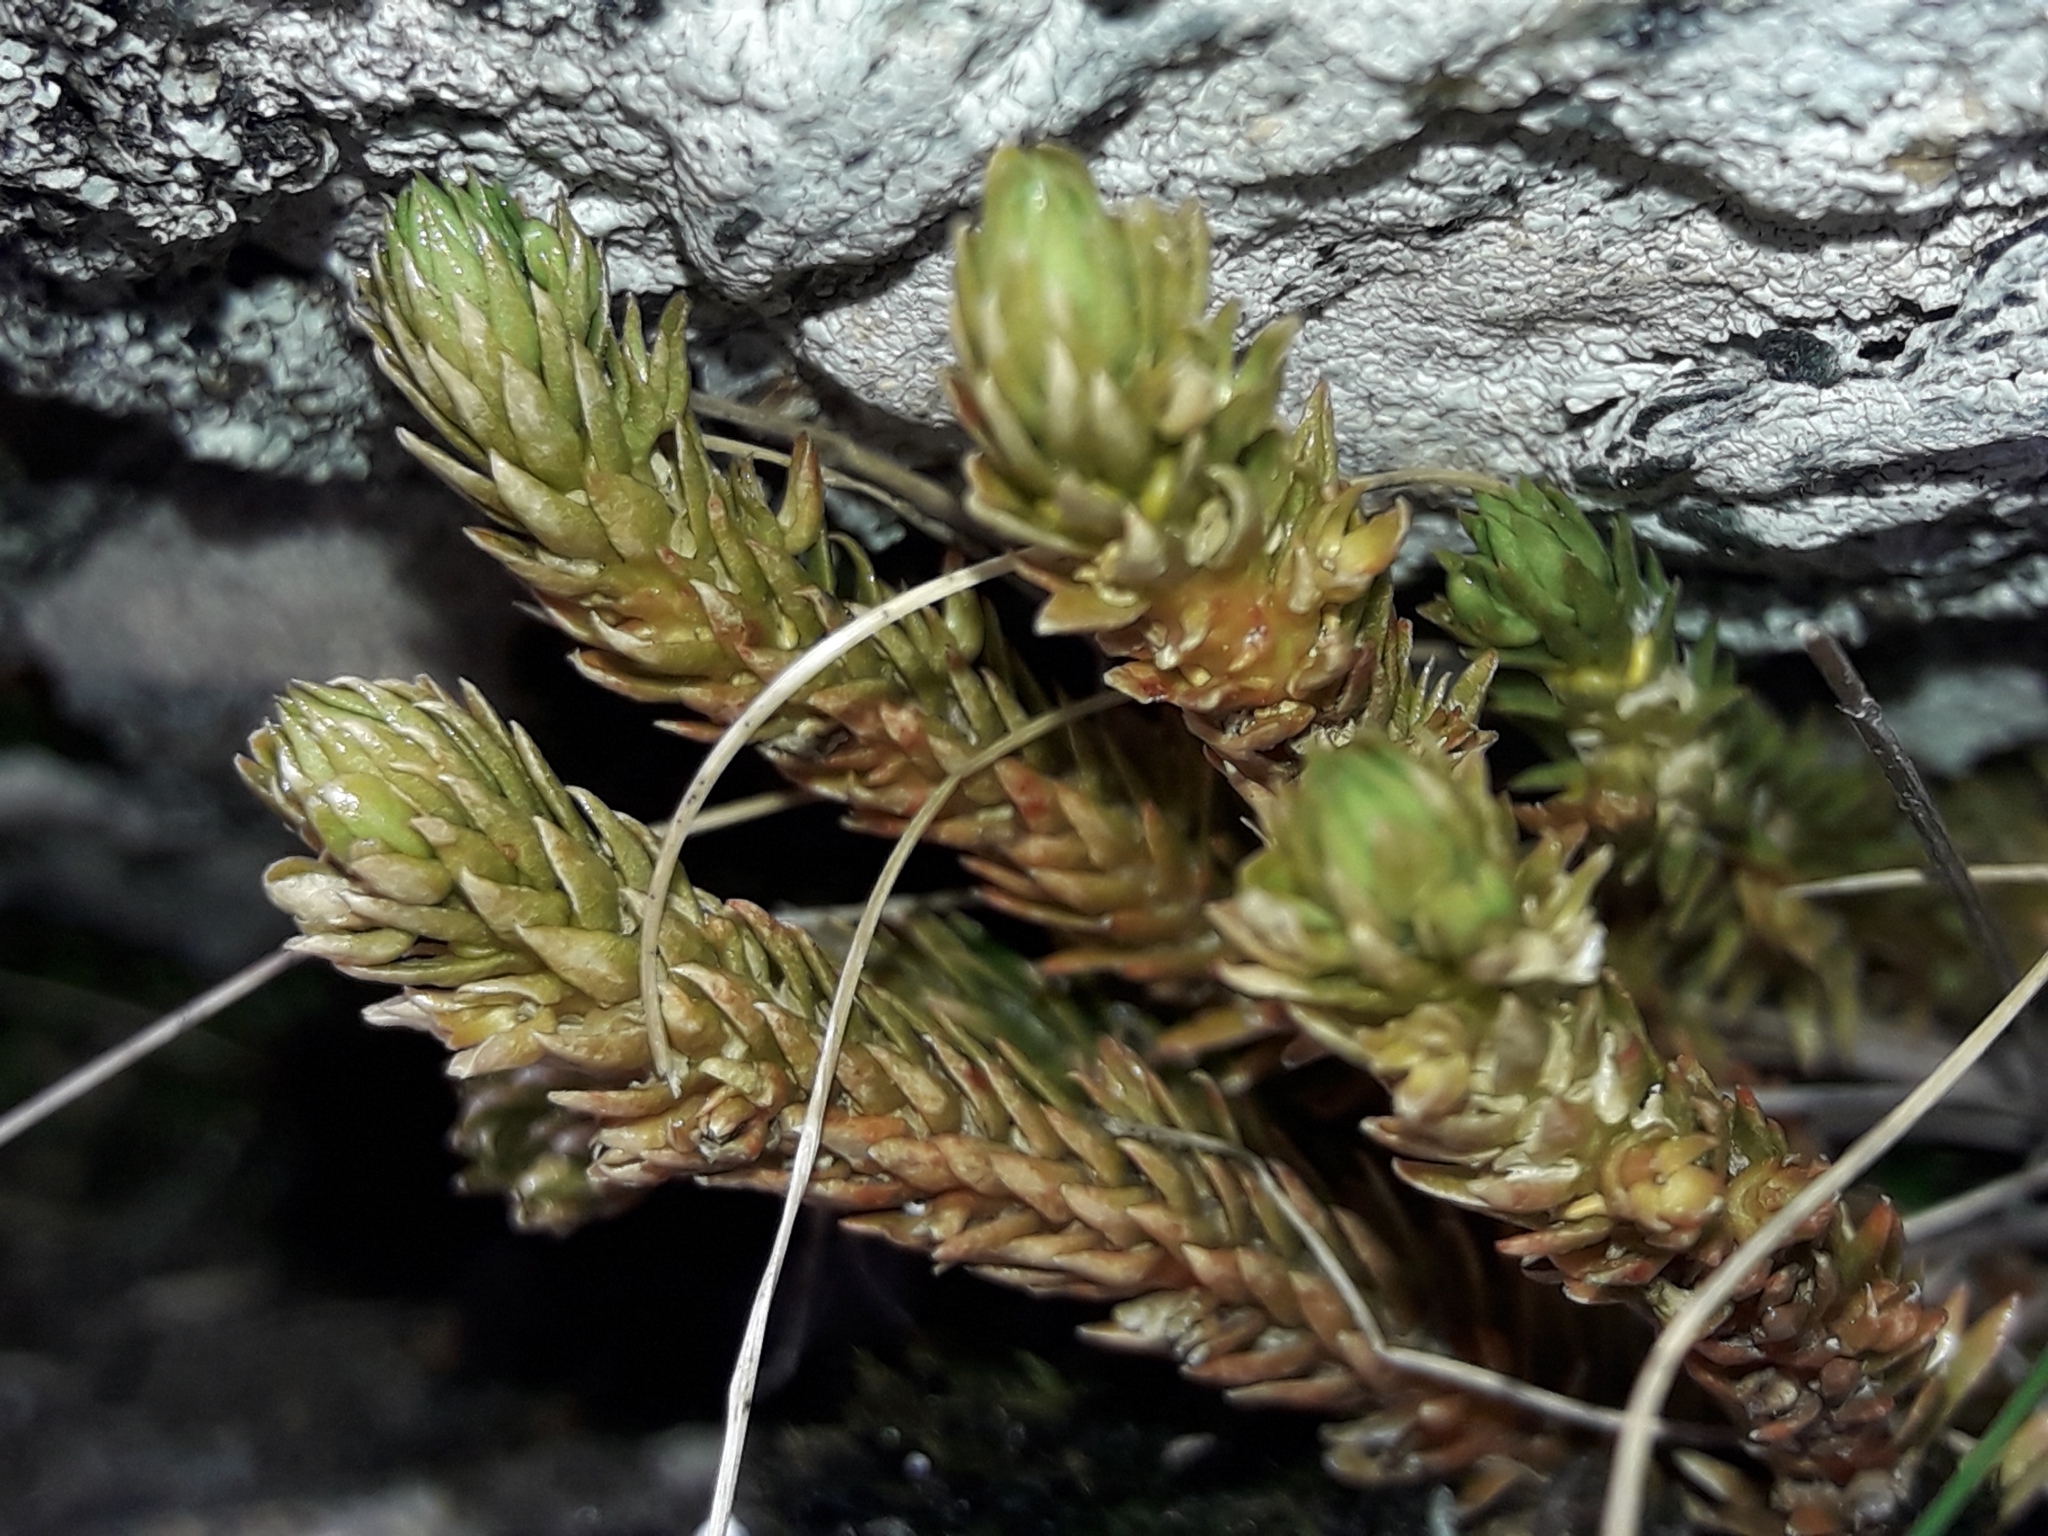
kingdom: Plantae
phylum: Tracheophyta
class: Lycopodiopsida
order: Lycopodiales
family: Lycopodiaceae
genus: Huperzia
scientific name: Huperzia australiana
